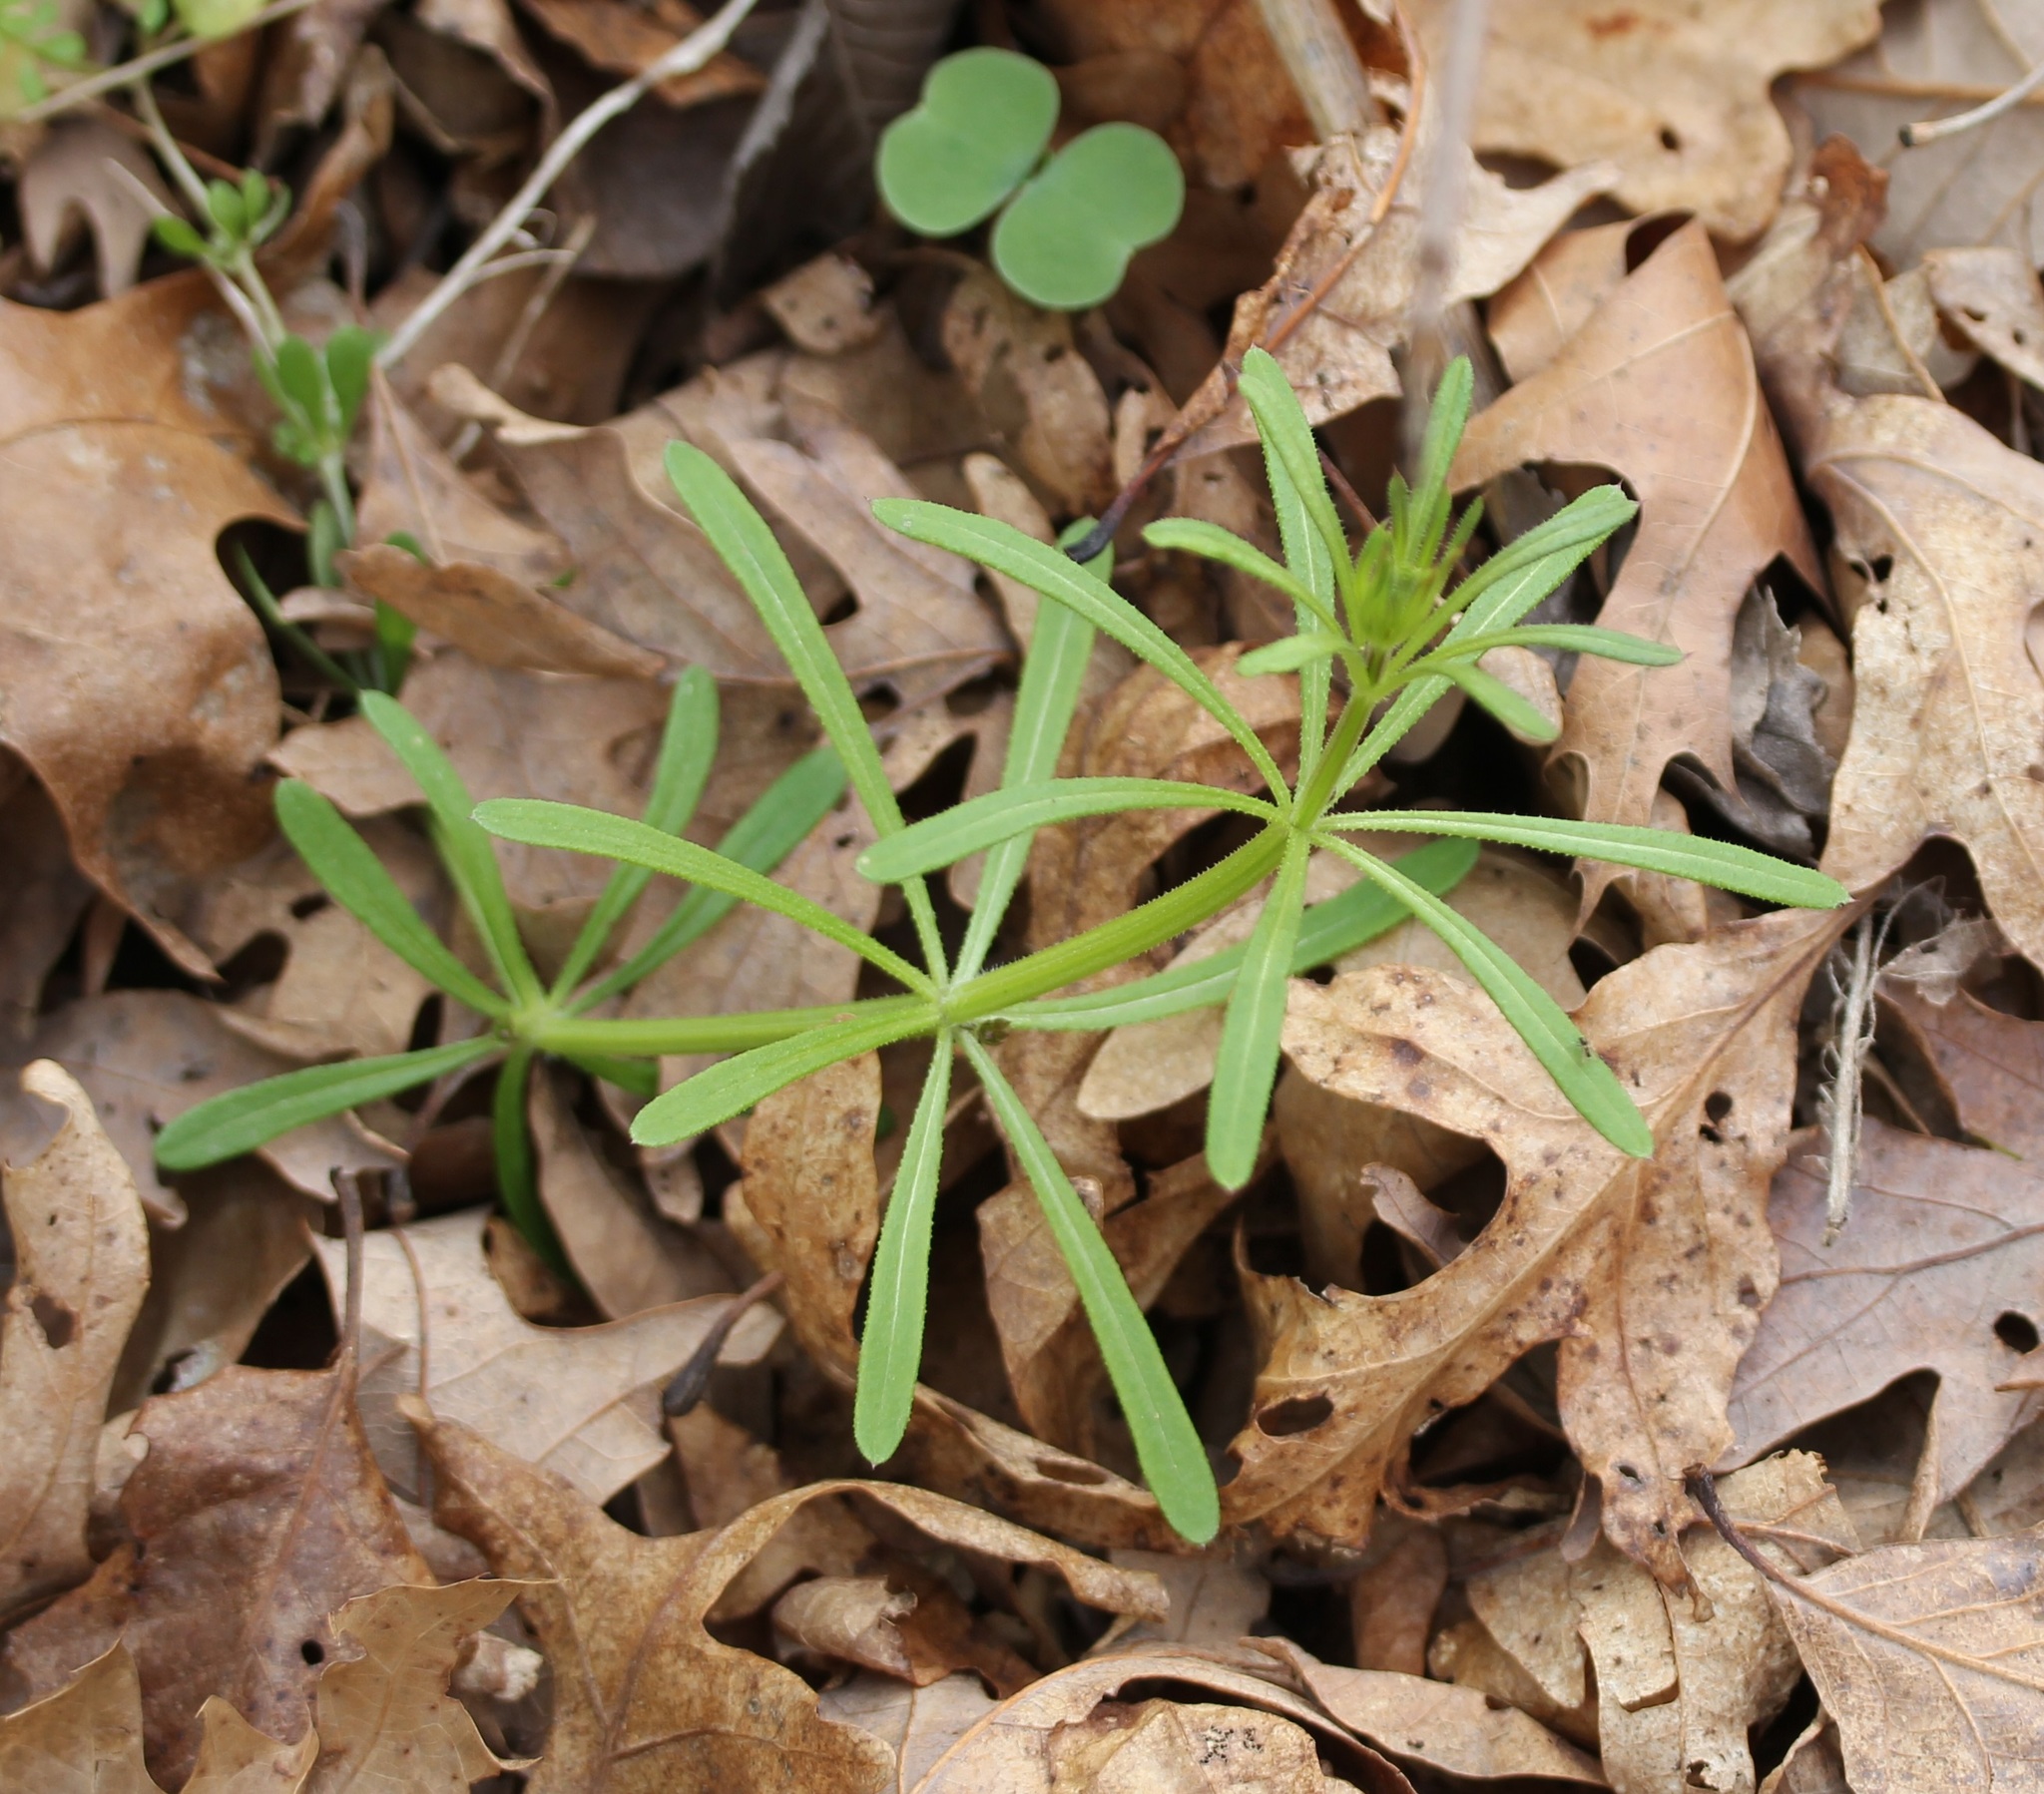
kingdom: Plantae
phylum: Tracheophyta
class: Magnoliopsida
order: Gentianales
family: Rubiaceae
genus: Galium
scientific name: Galium aparine
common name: Cleavers
